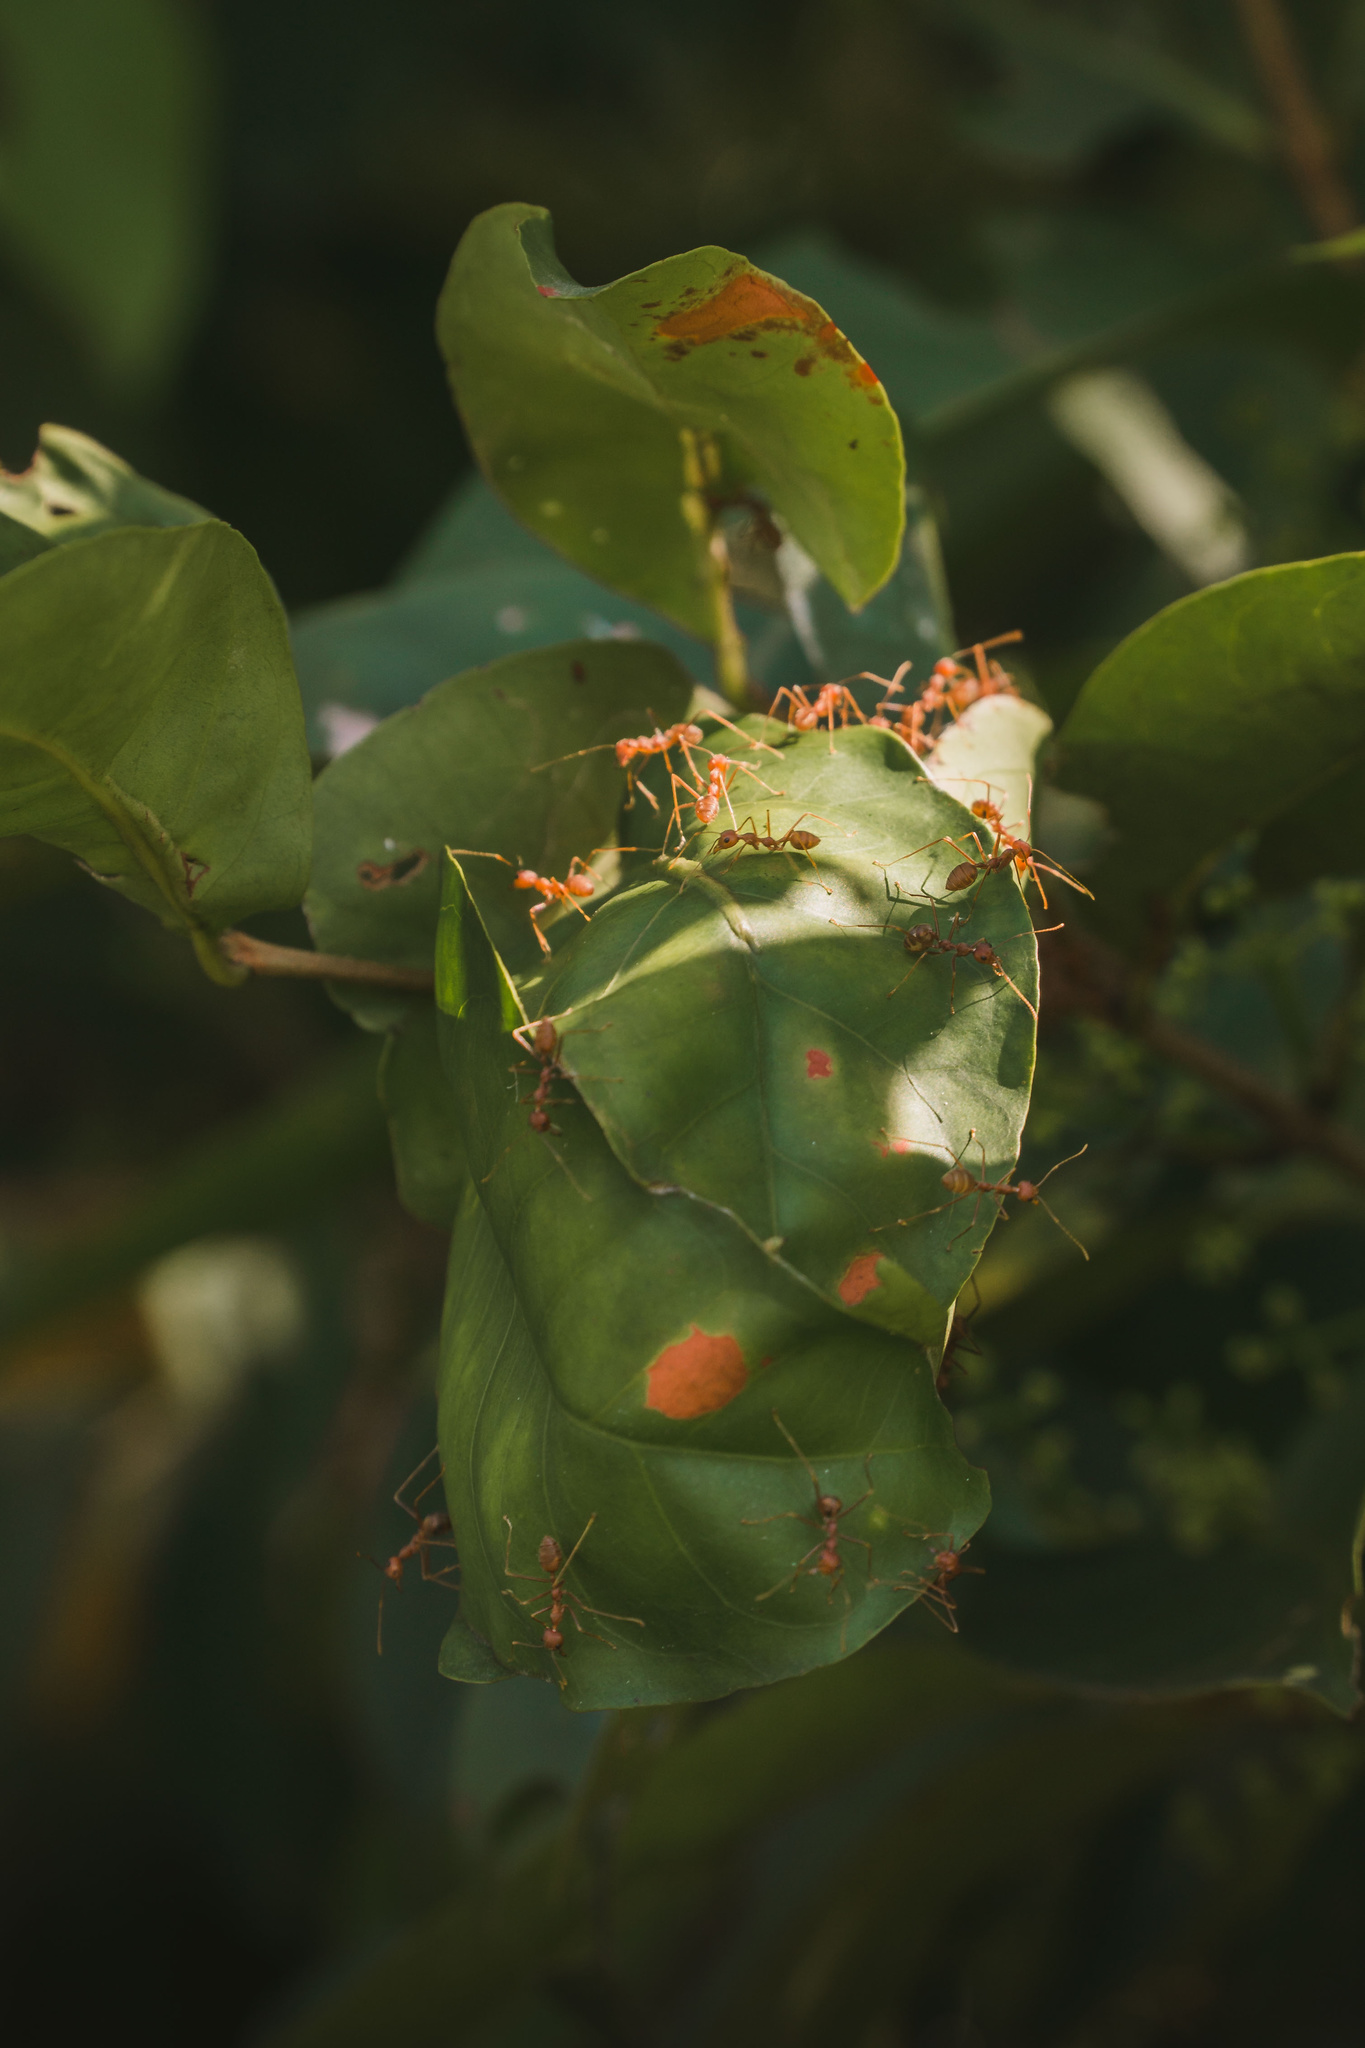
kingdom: Animalia
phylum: Arthropoda
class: Insecta
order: Hymenoptera
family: Formicidae
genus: Oecophylla
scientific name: Oecophylla smaragdina
